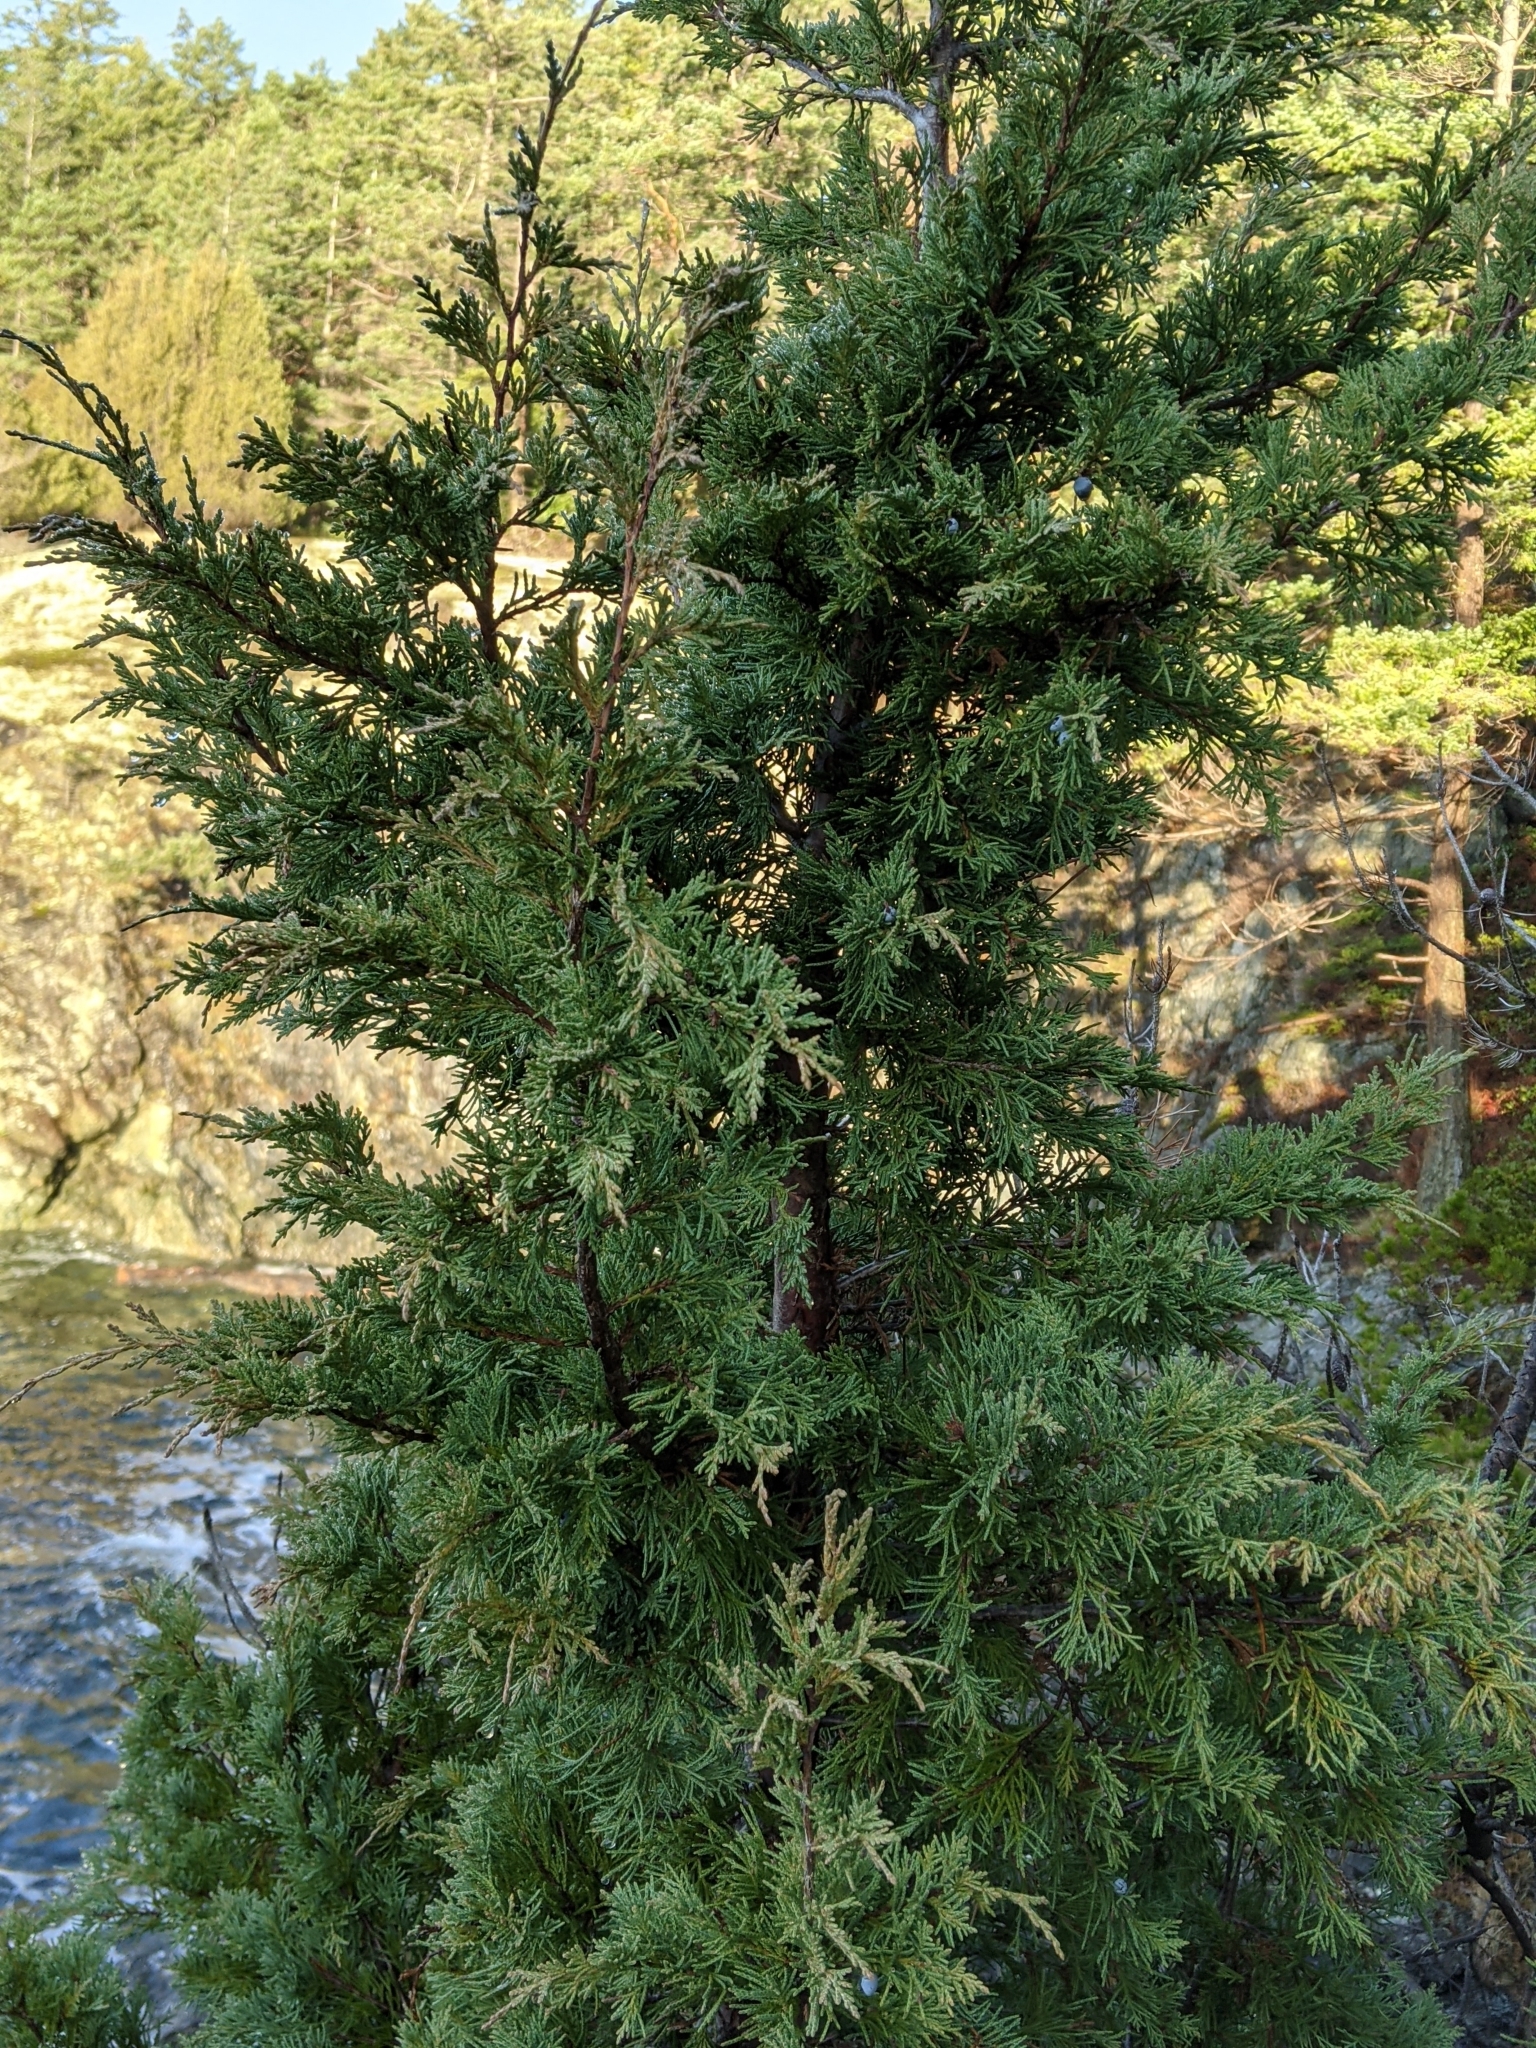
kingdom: Plantae
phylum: Tracheophyta
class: Pinopsida
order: Pinales
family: Cupressaceae
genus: Juniperus
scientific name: Juniperus scopulorum
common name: Rocky mountain juniper
